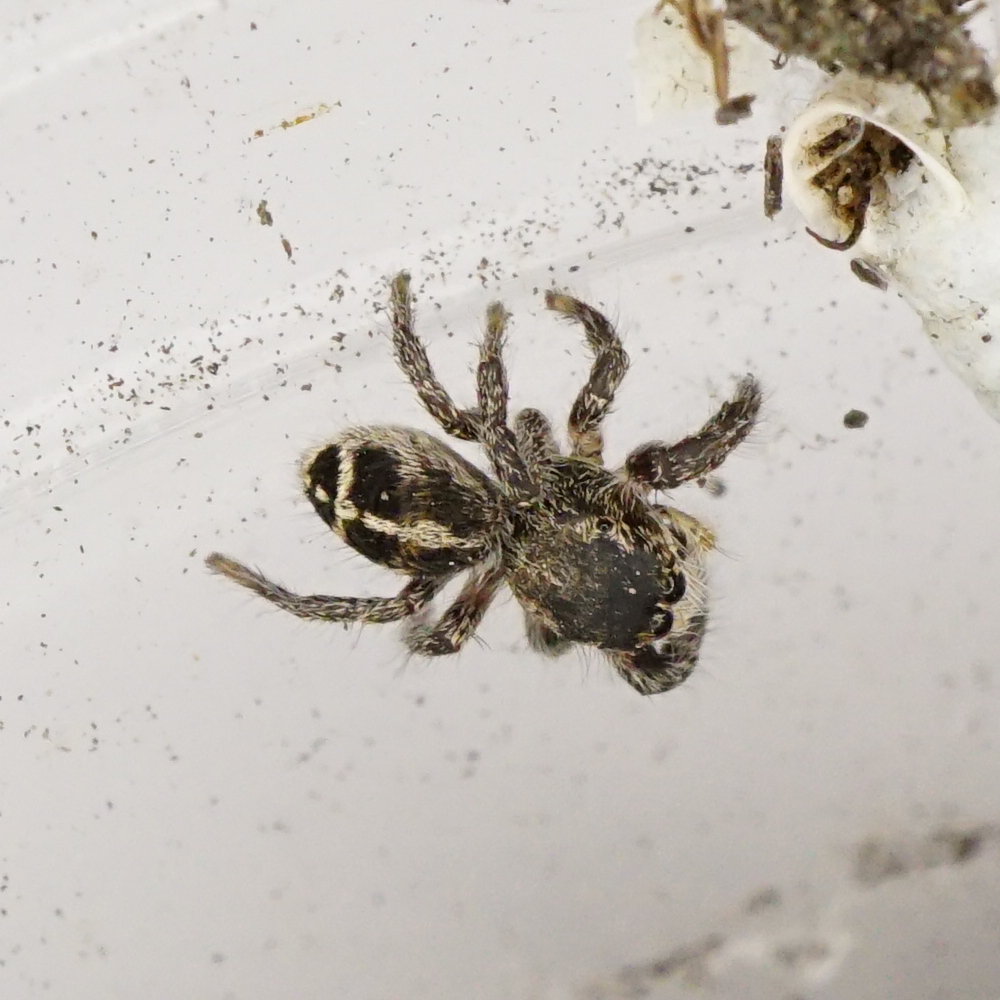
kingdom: Animalia
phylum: Arthropoda
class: Arachnida
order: Araneae
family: Salticidae
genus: Pellenes
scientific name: Pellenes tripunctatus
